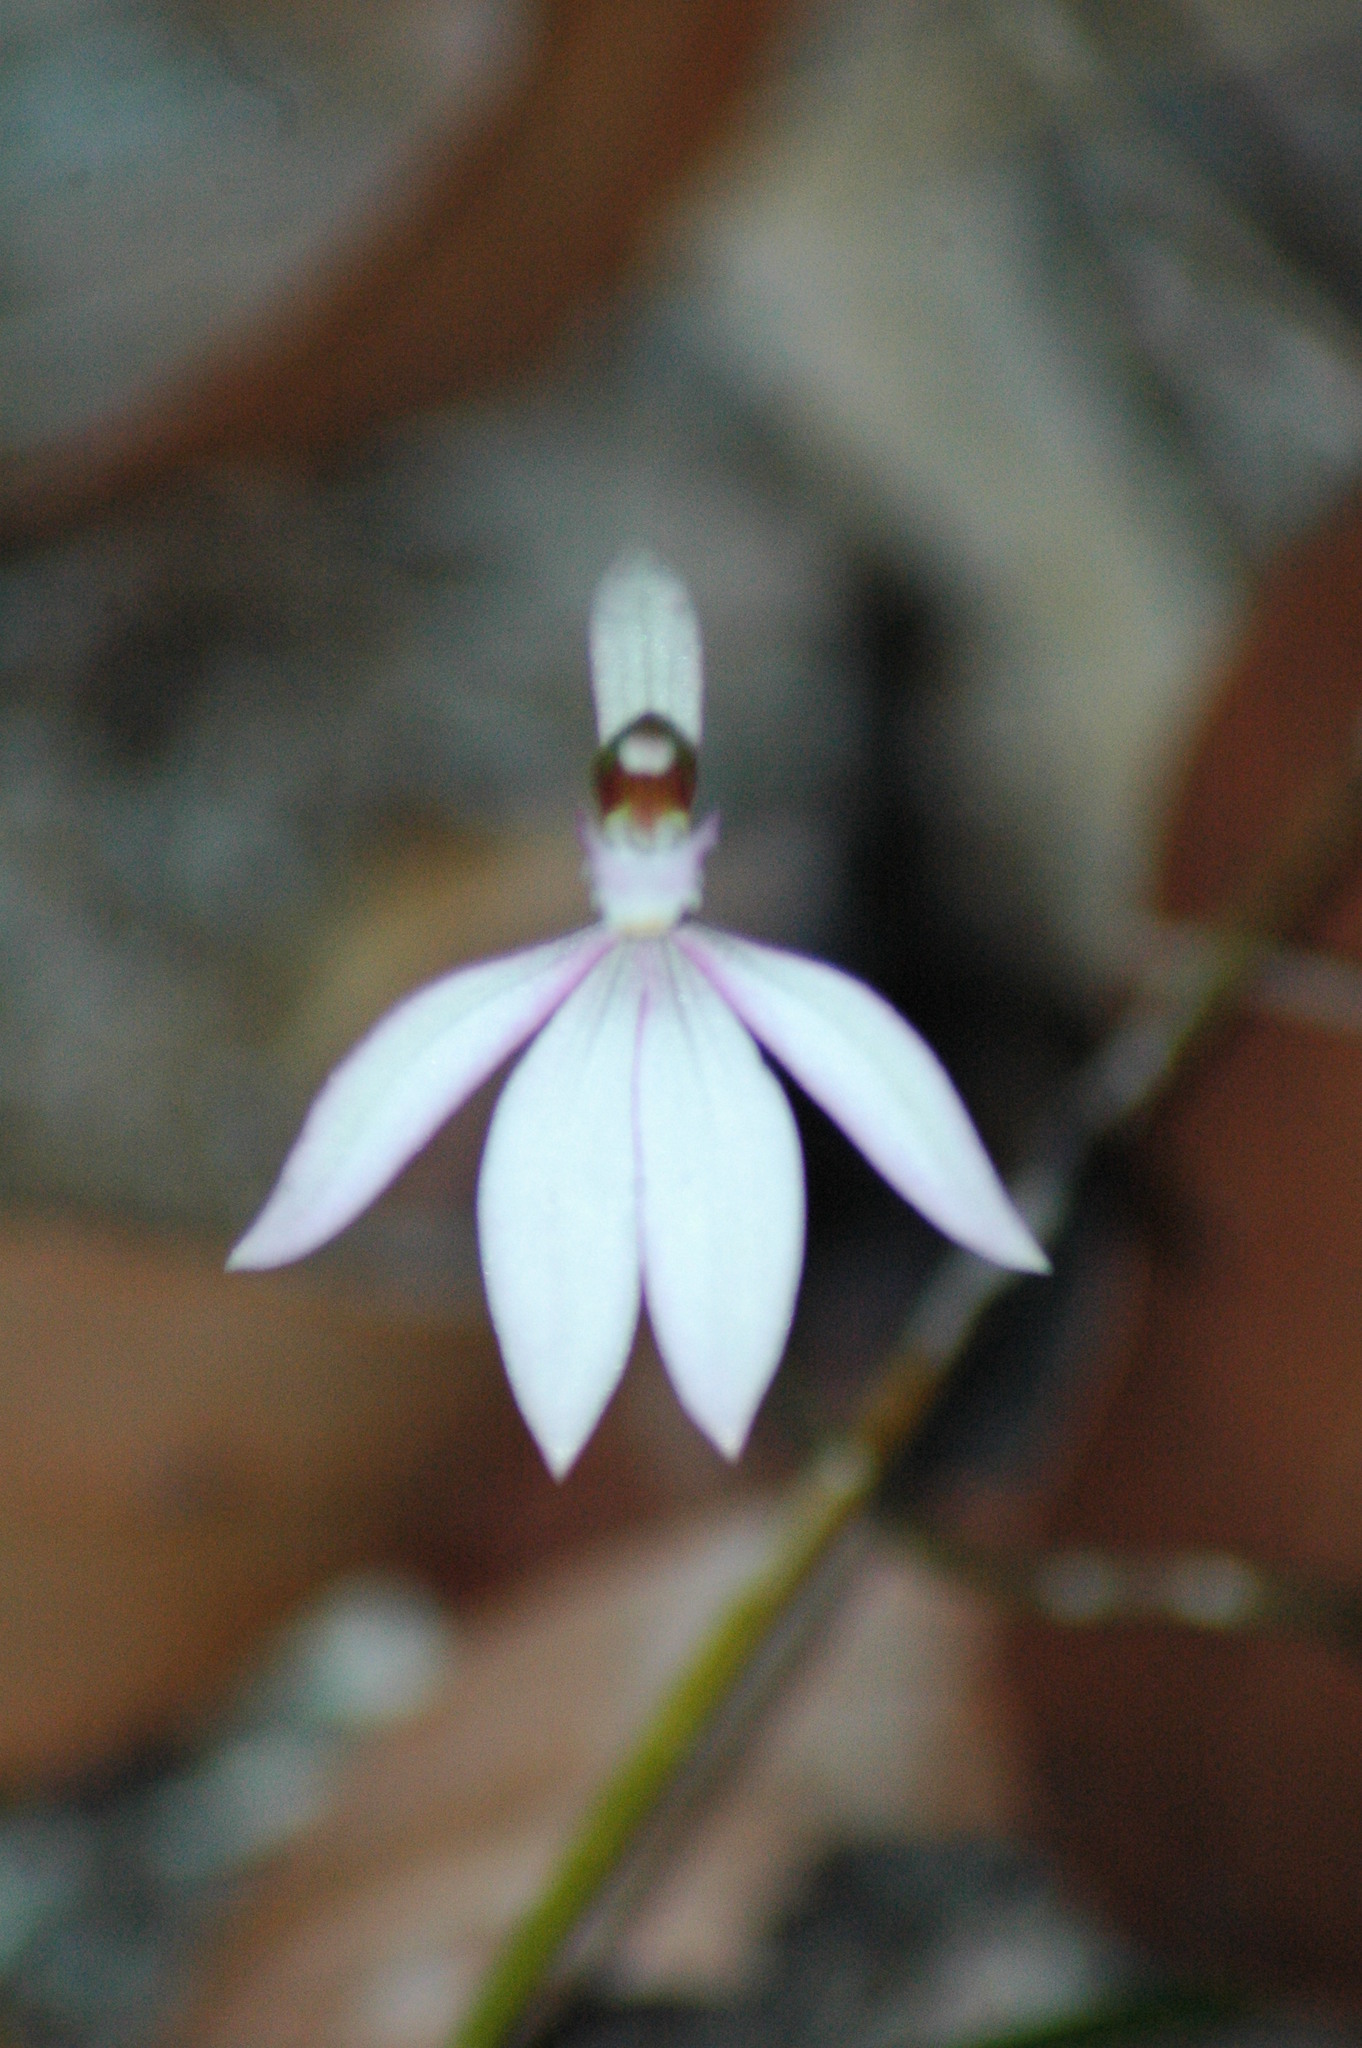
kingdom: Plantae
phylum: Tracheophyta
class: Liliopsida
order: Asparagales
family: Orchidaceae
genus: Caladenia
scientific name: Caladenia picta
